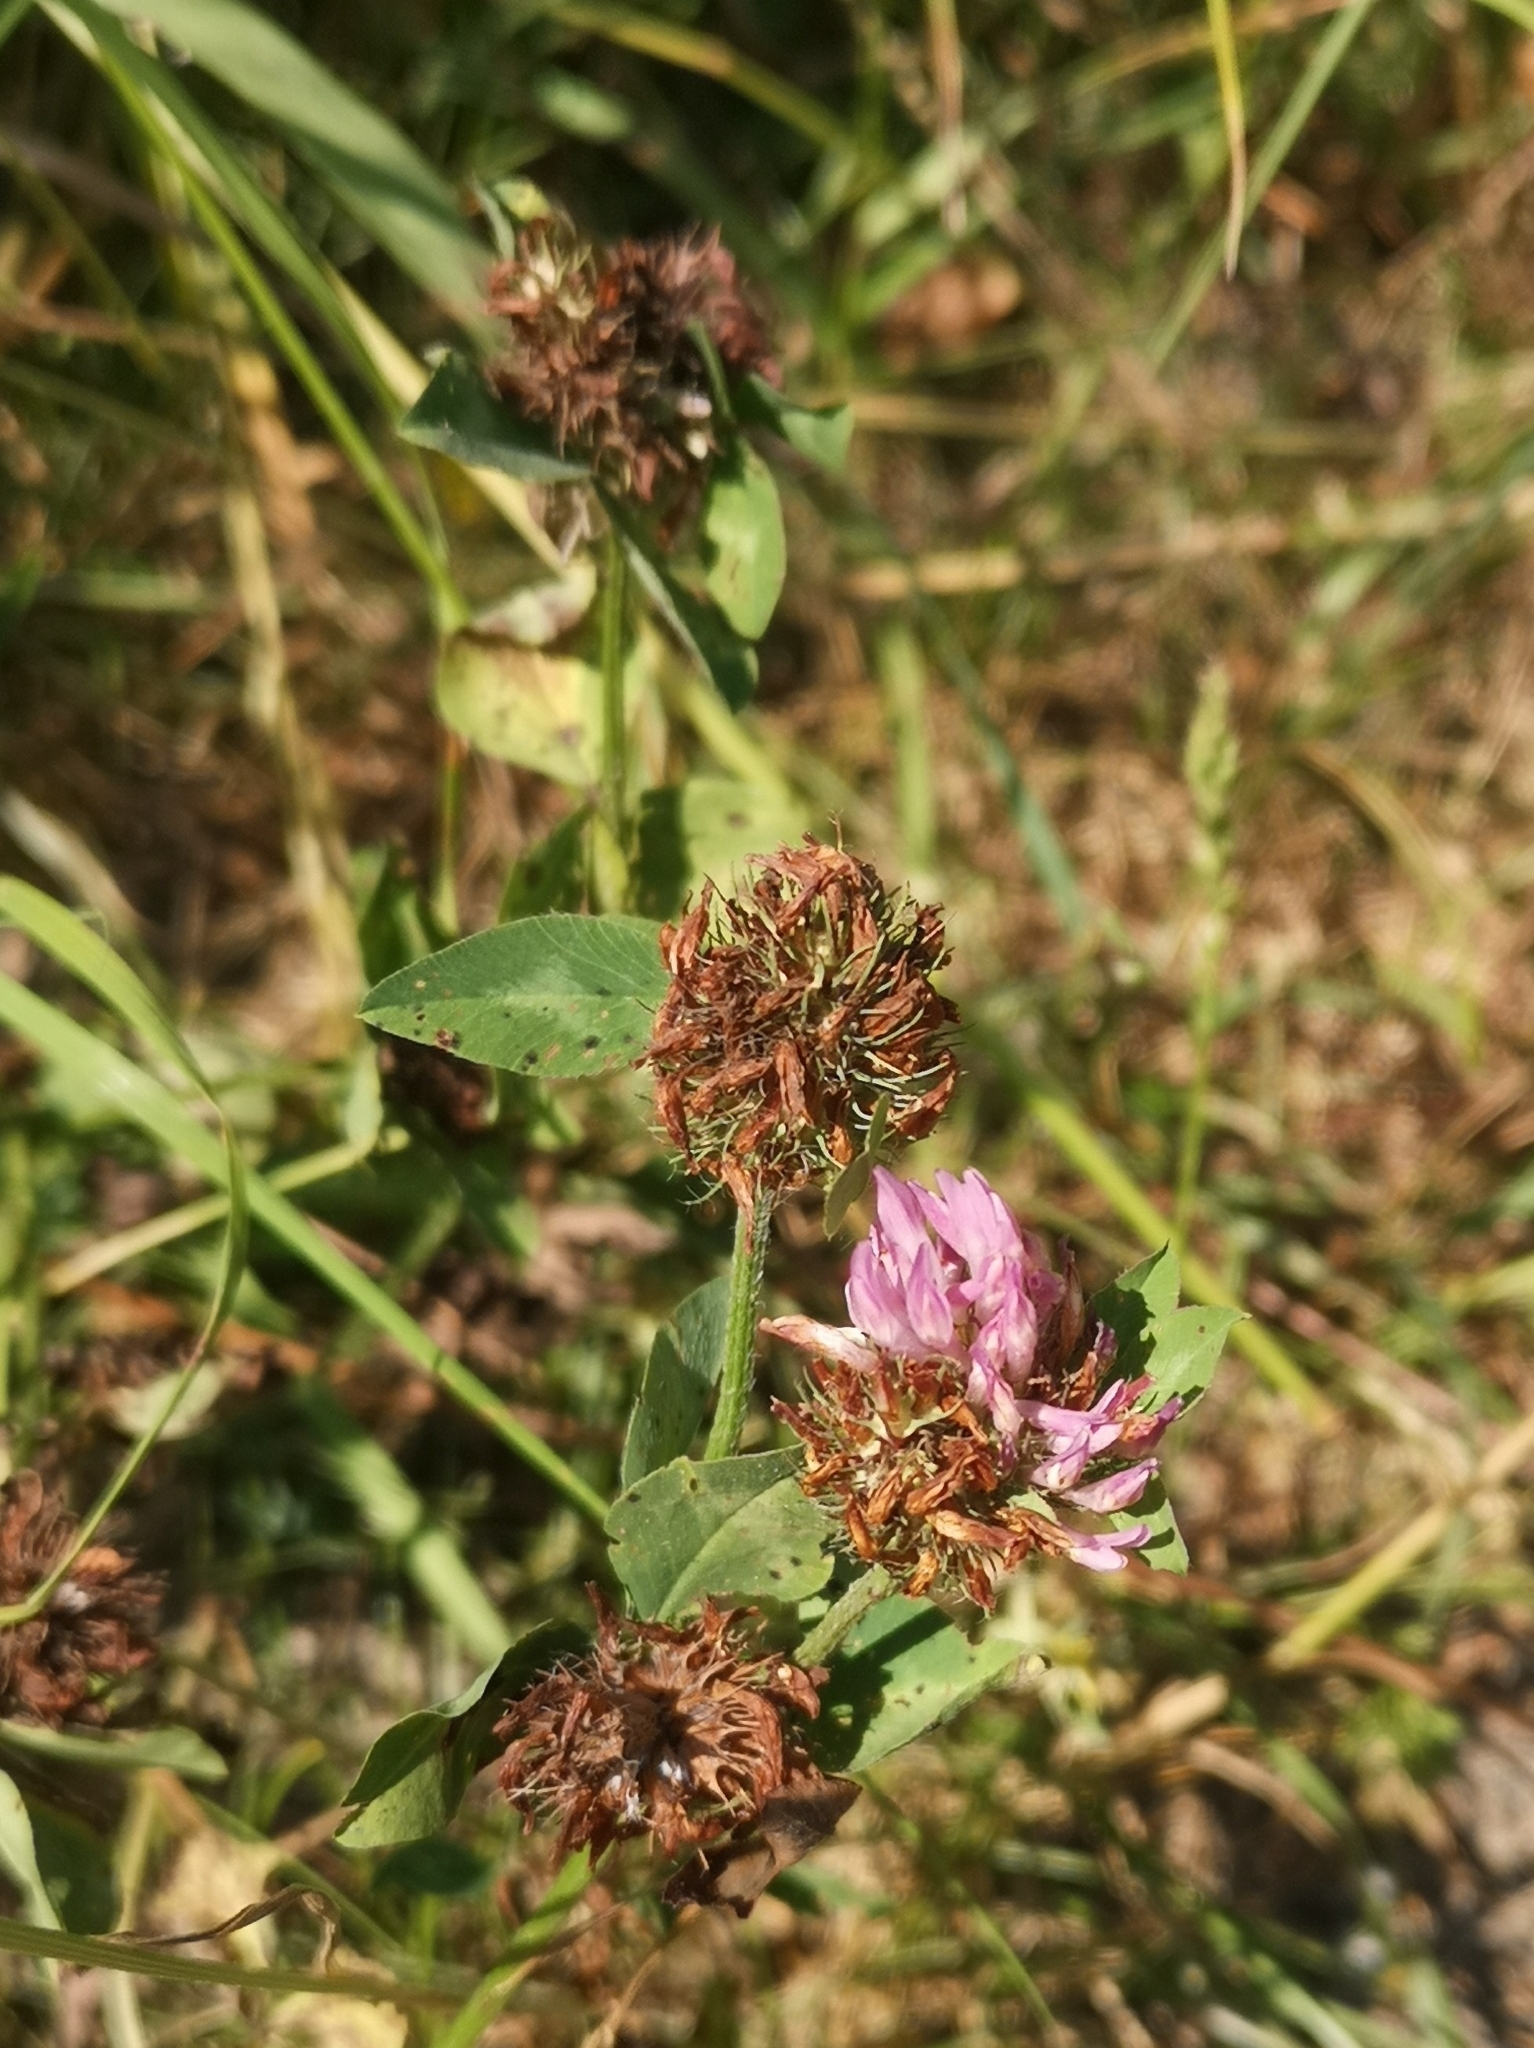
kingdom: Plantae
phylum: Tracheophyta
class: Magnoliopsida
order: Fabales
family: Fabaceae
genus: Trifolium
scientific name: Trifolium pratense
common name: Red clover
